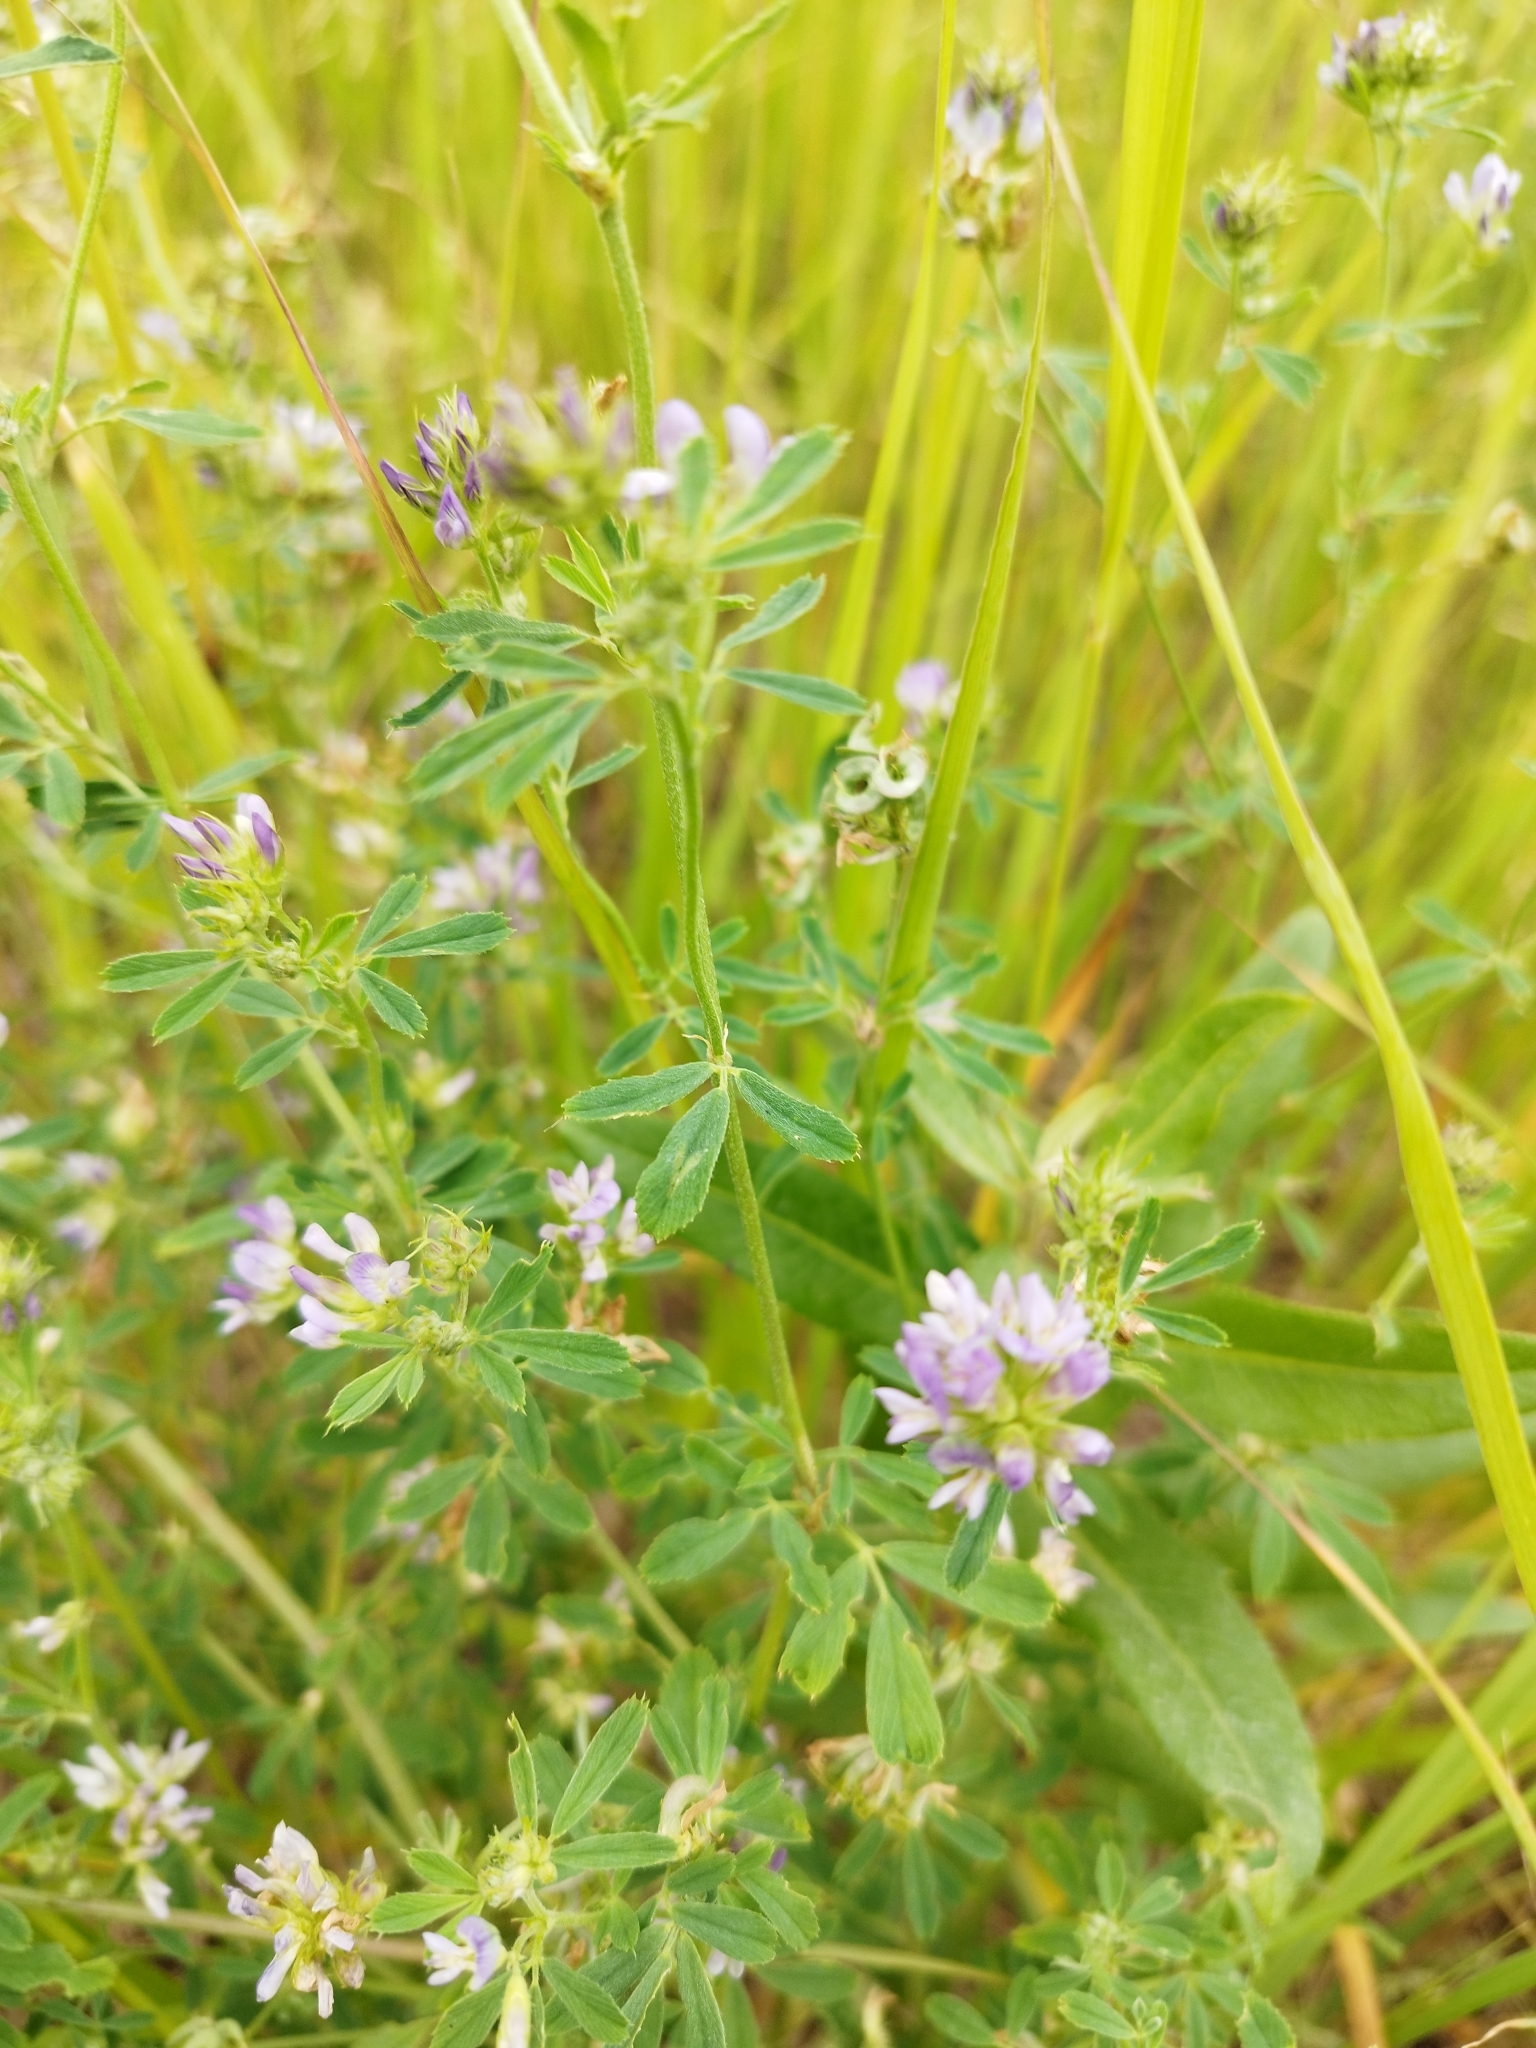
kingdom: Plantae
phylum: Tracheophyta
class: Magnoliopsida
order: Fabales
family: Fabaceae
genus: Medicago
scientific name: Medicago varia
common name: Sand lucerne
